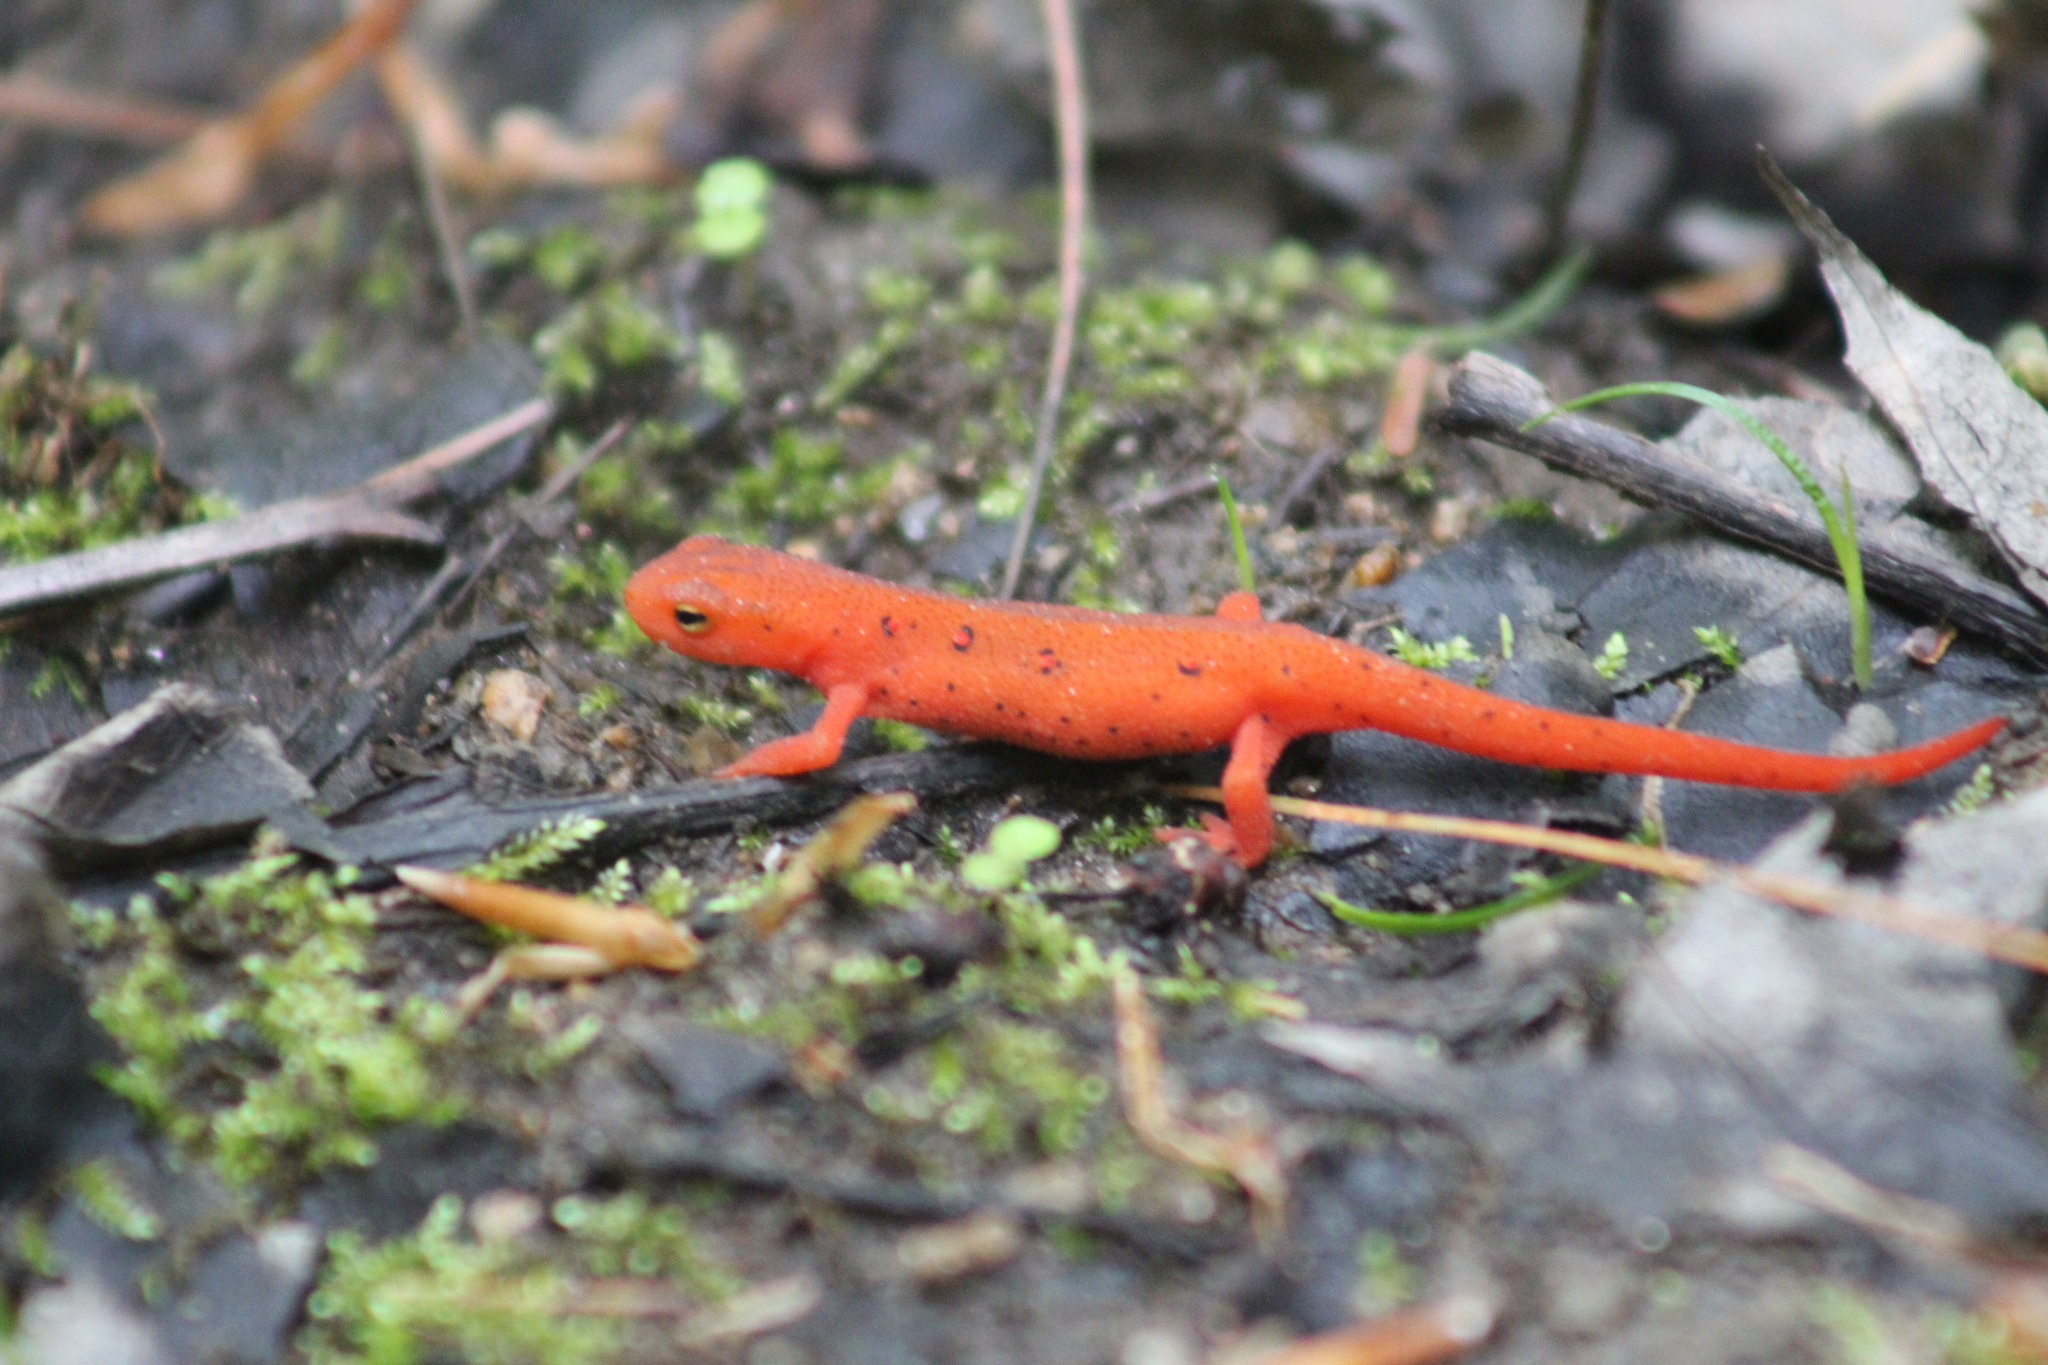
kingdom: Animalia
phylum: Chordata
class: Amphibia
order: Caudata
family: Salamandridae
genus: Notophthalmus
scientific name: Notophthalmus viridescens
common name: Eastern newt
